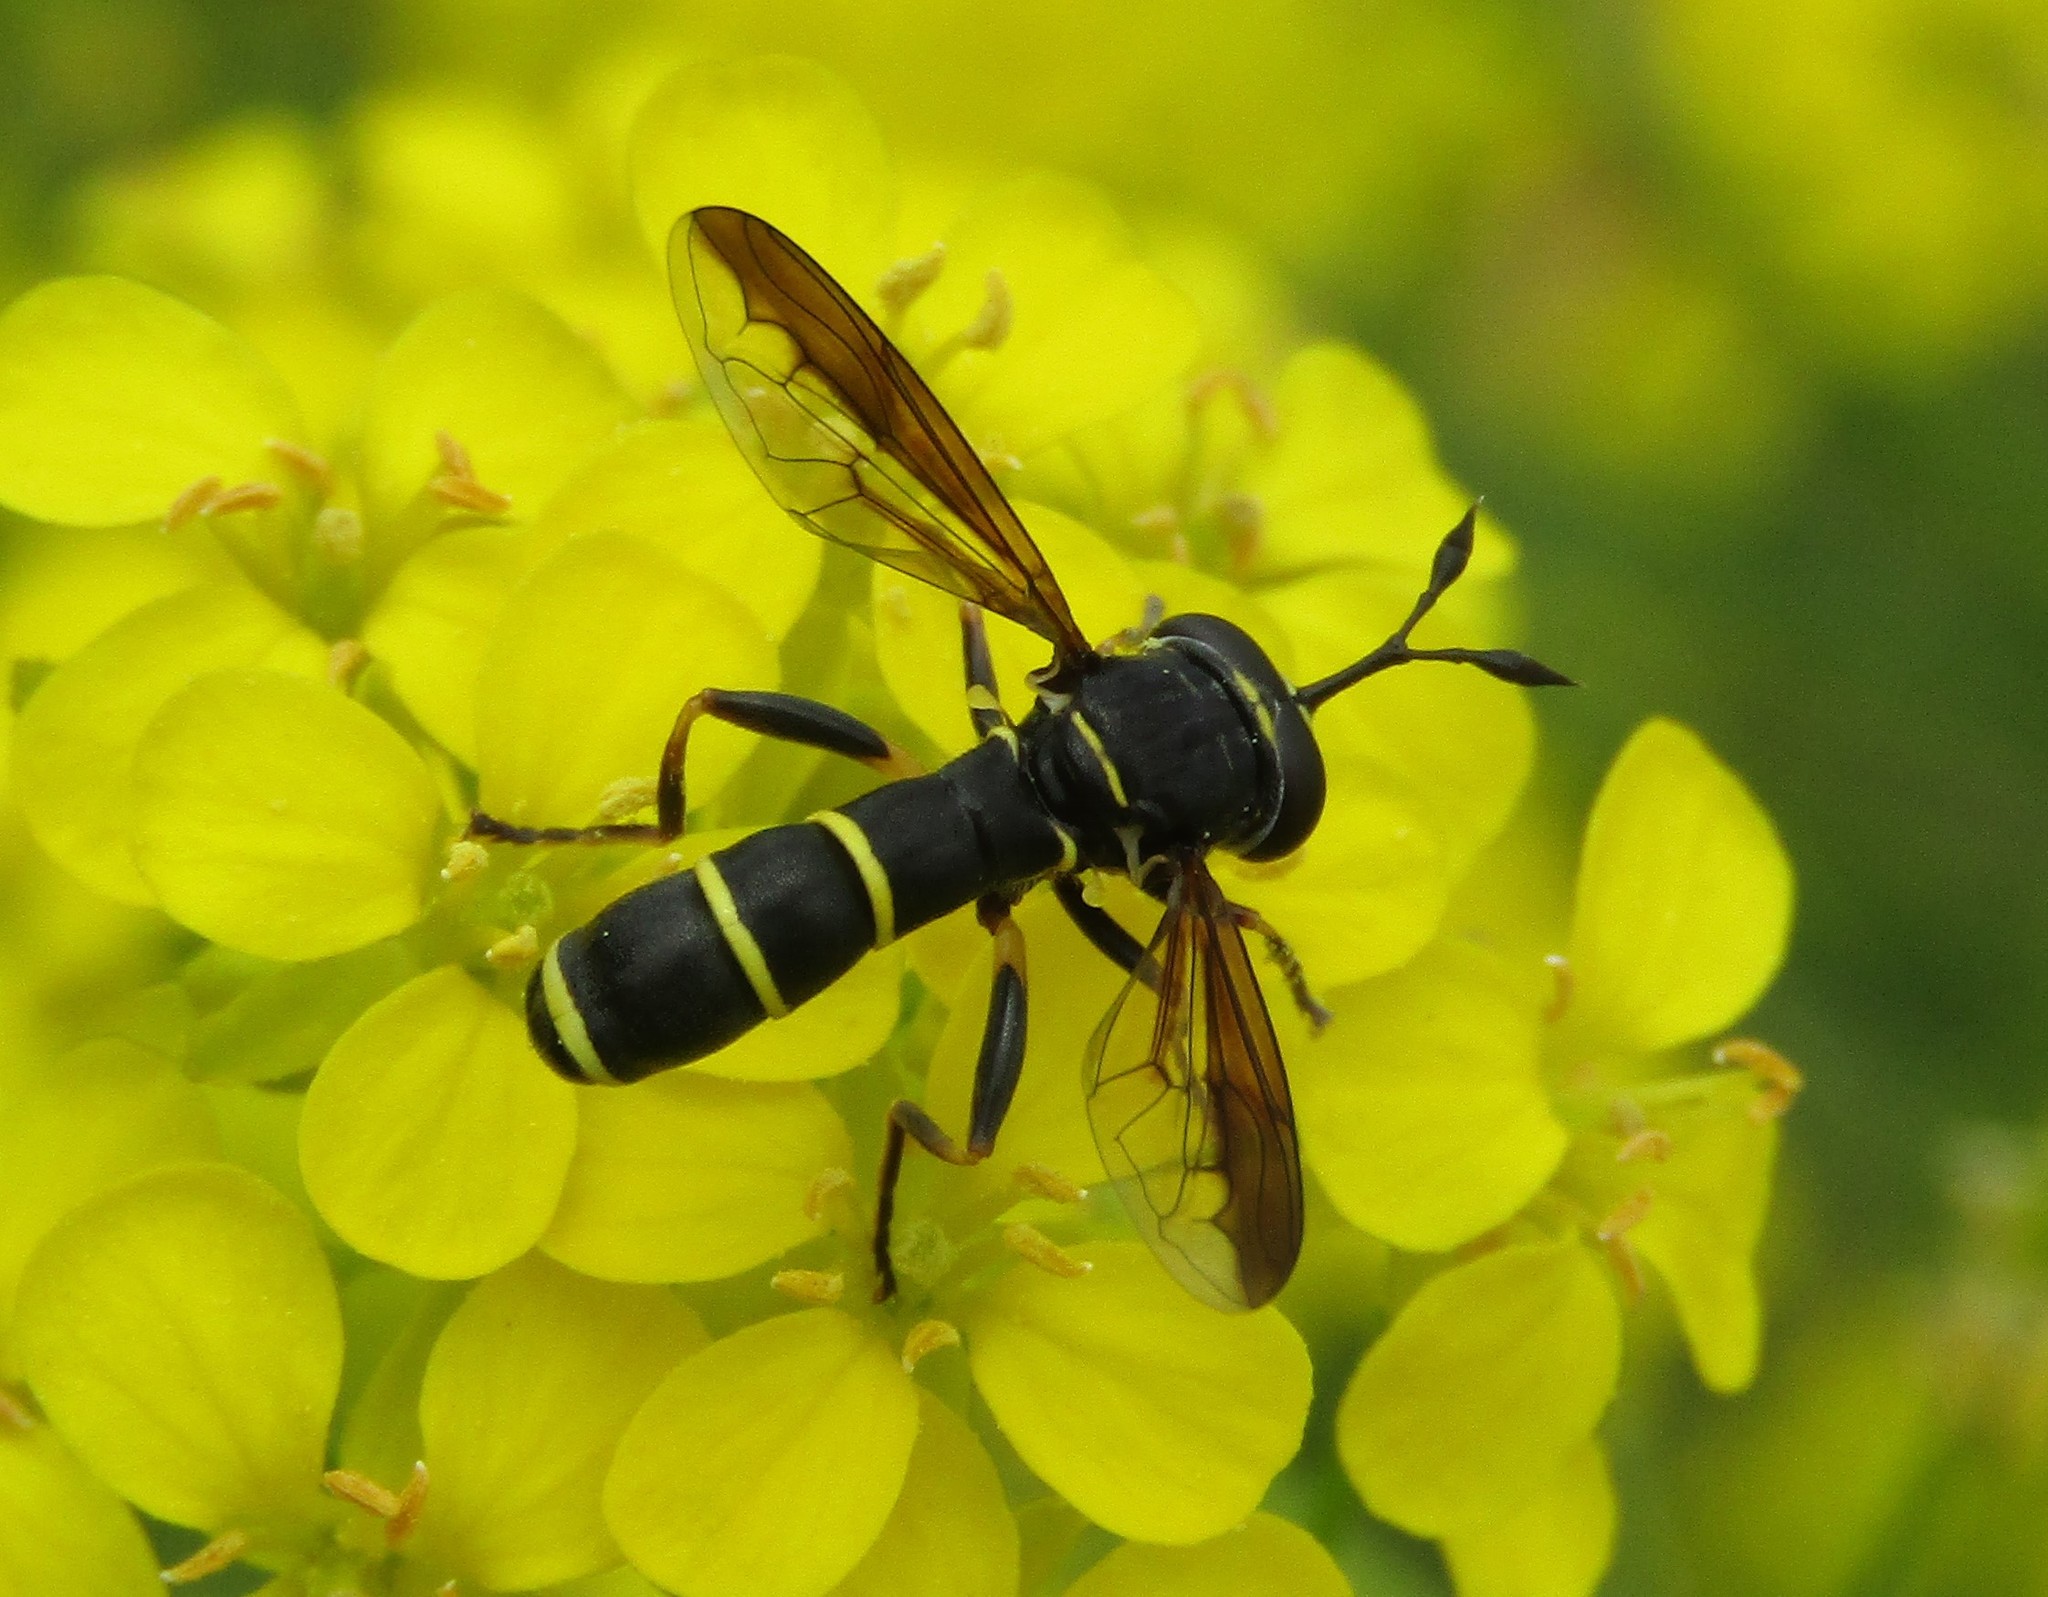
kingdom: Animalia
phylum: Arthropoda
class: Insecta
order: Diptera
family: Syrphidae
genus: Ceriana
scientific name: Ceriana conopsoides
